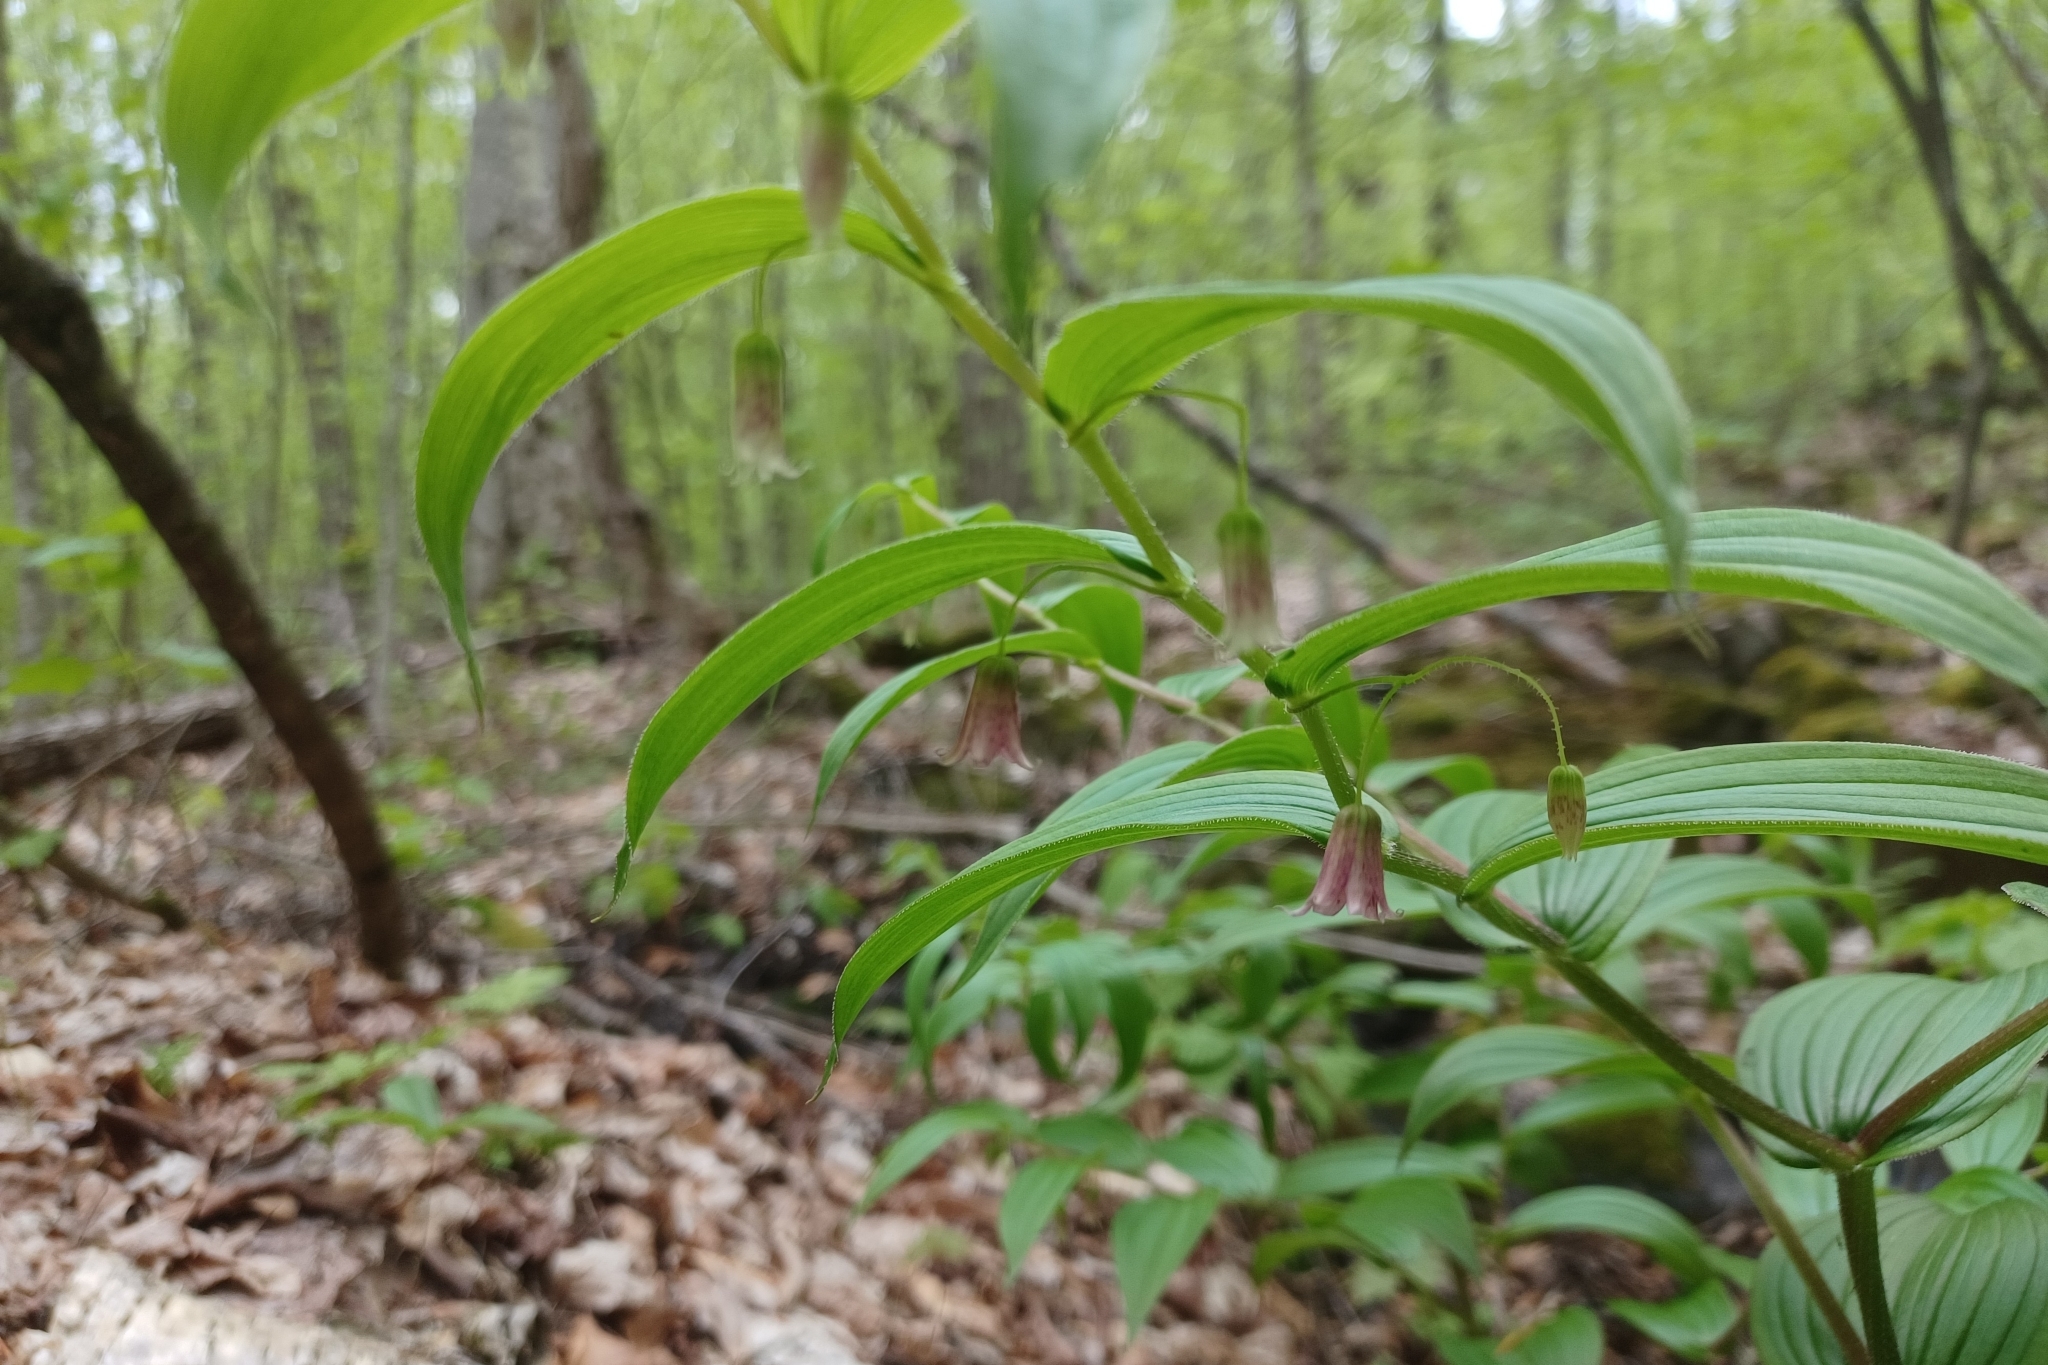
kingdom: Plantae
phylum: Tracheophyta
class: Liliopsida
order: Liliales
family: Liliaceae
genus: Streptopus
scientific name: Streptopus lanceolatus
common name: Rose mandarin
